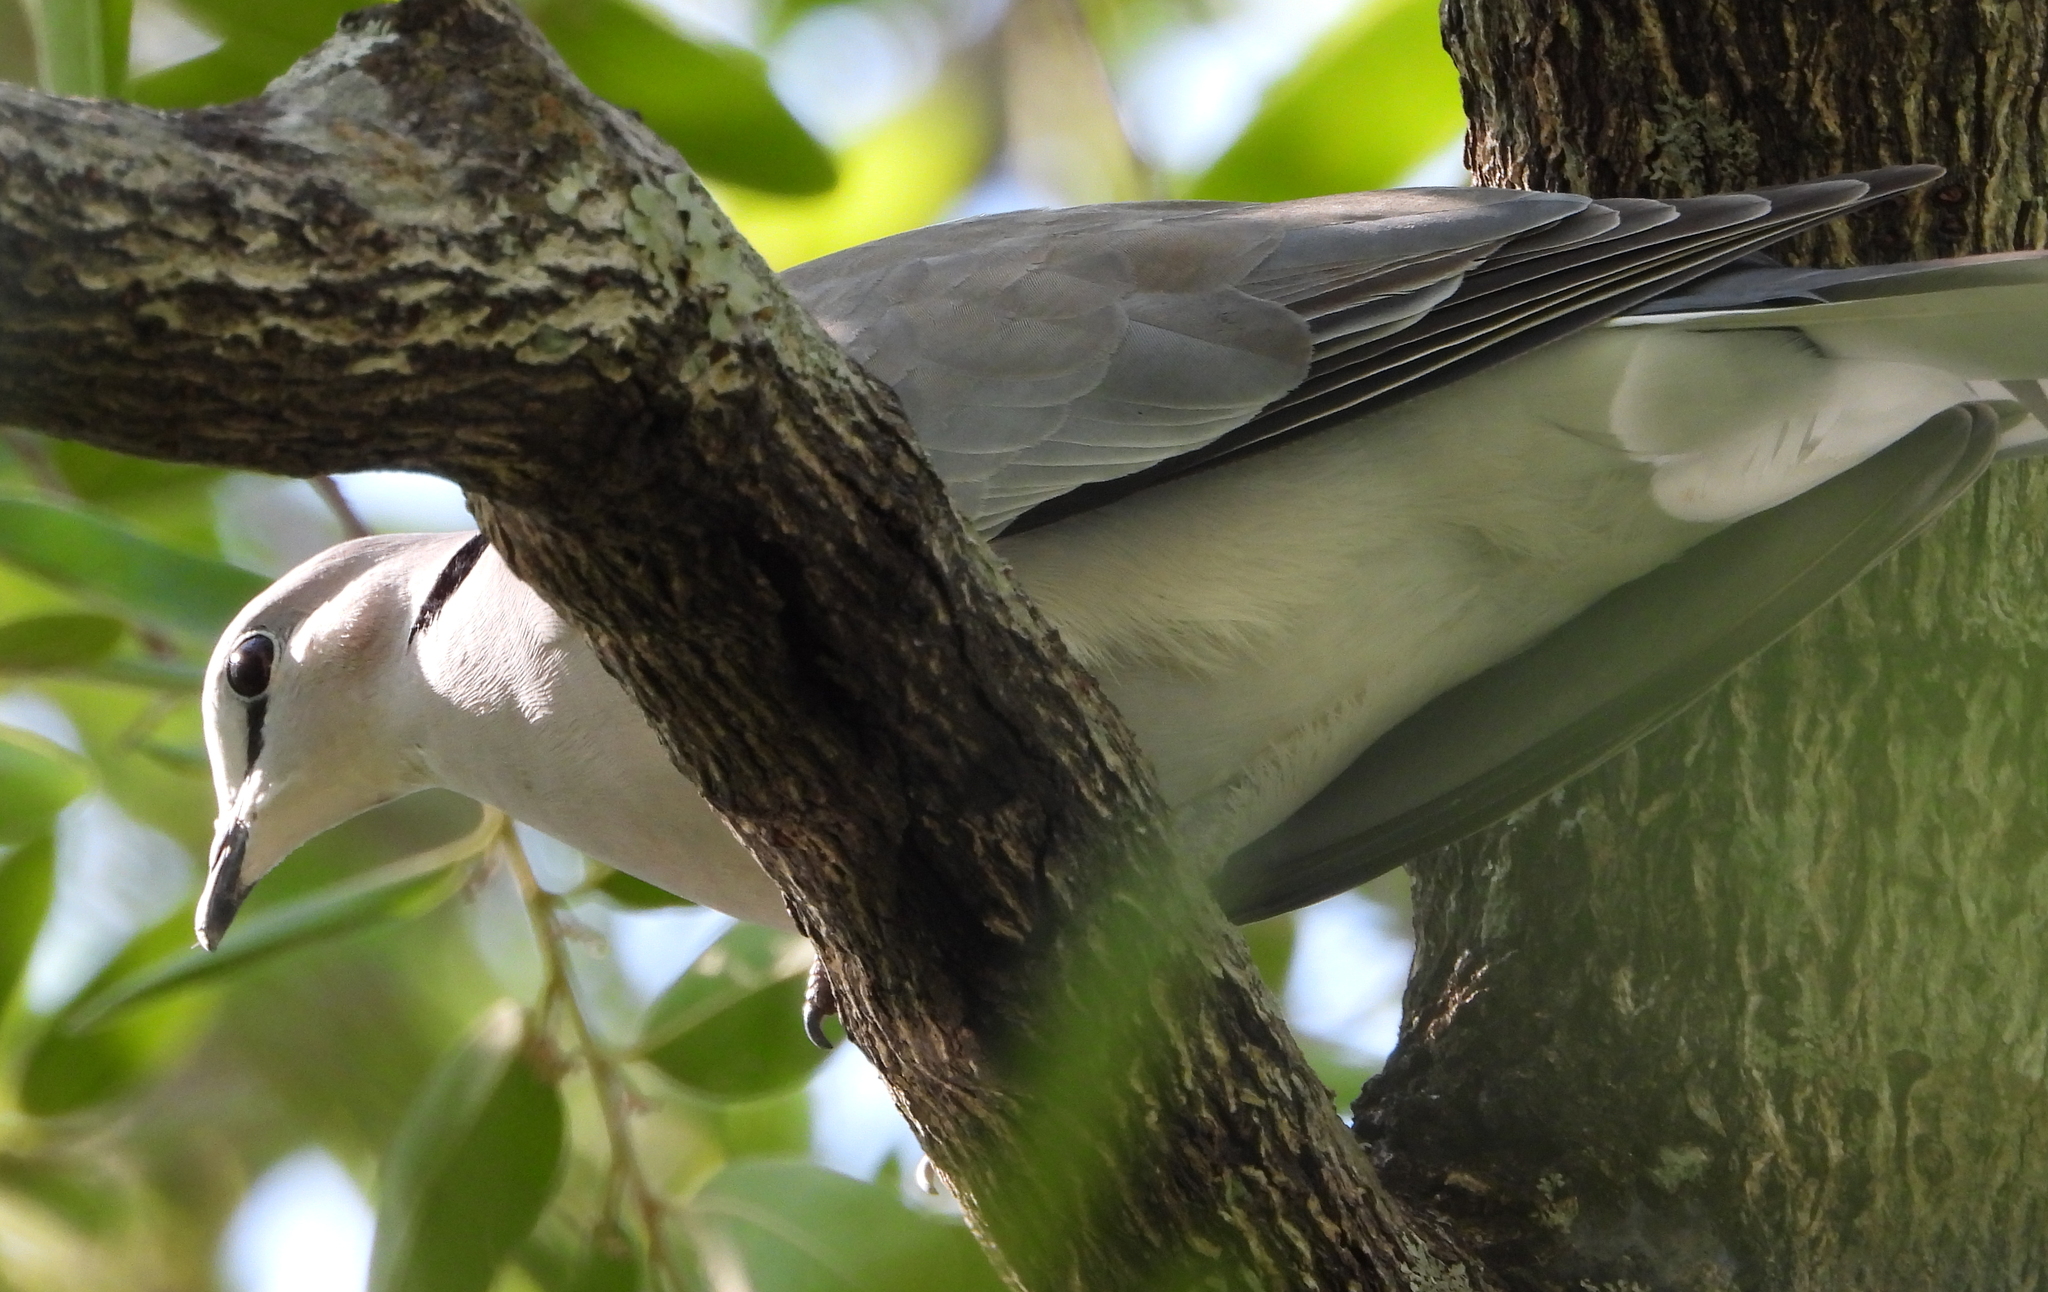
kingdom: Animalia
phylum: Chordata
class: Aves
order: Columbiformes
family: Columbidae
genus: Streptopelia
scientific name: Streptopelia capicola
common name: Ring-necked dove
